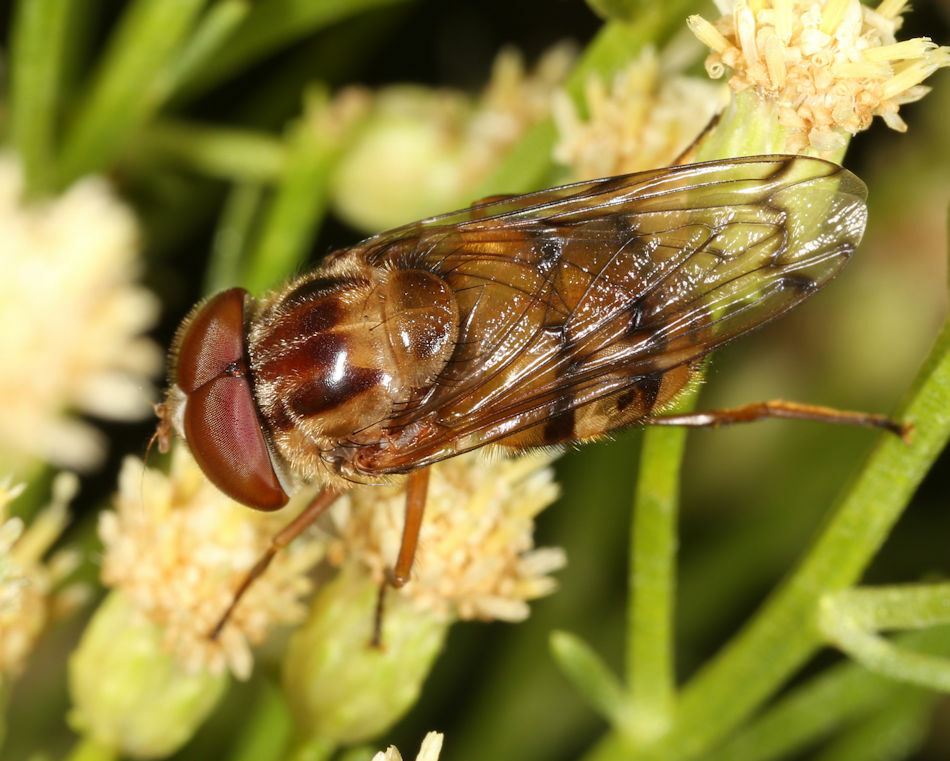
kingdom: Animalia
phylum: Arthropoda
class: Insecta
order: Diptera
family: Syrphidae
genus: Copestylum
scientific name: Copestylum opinator
